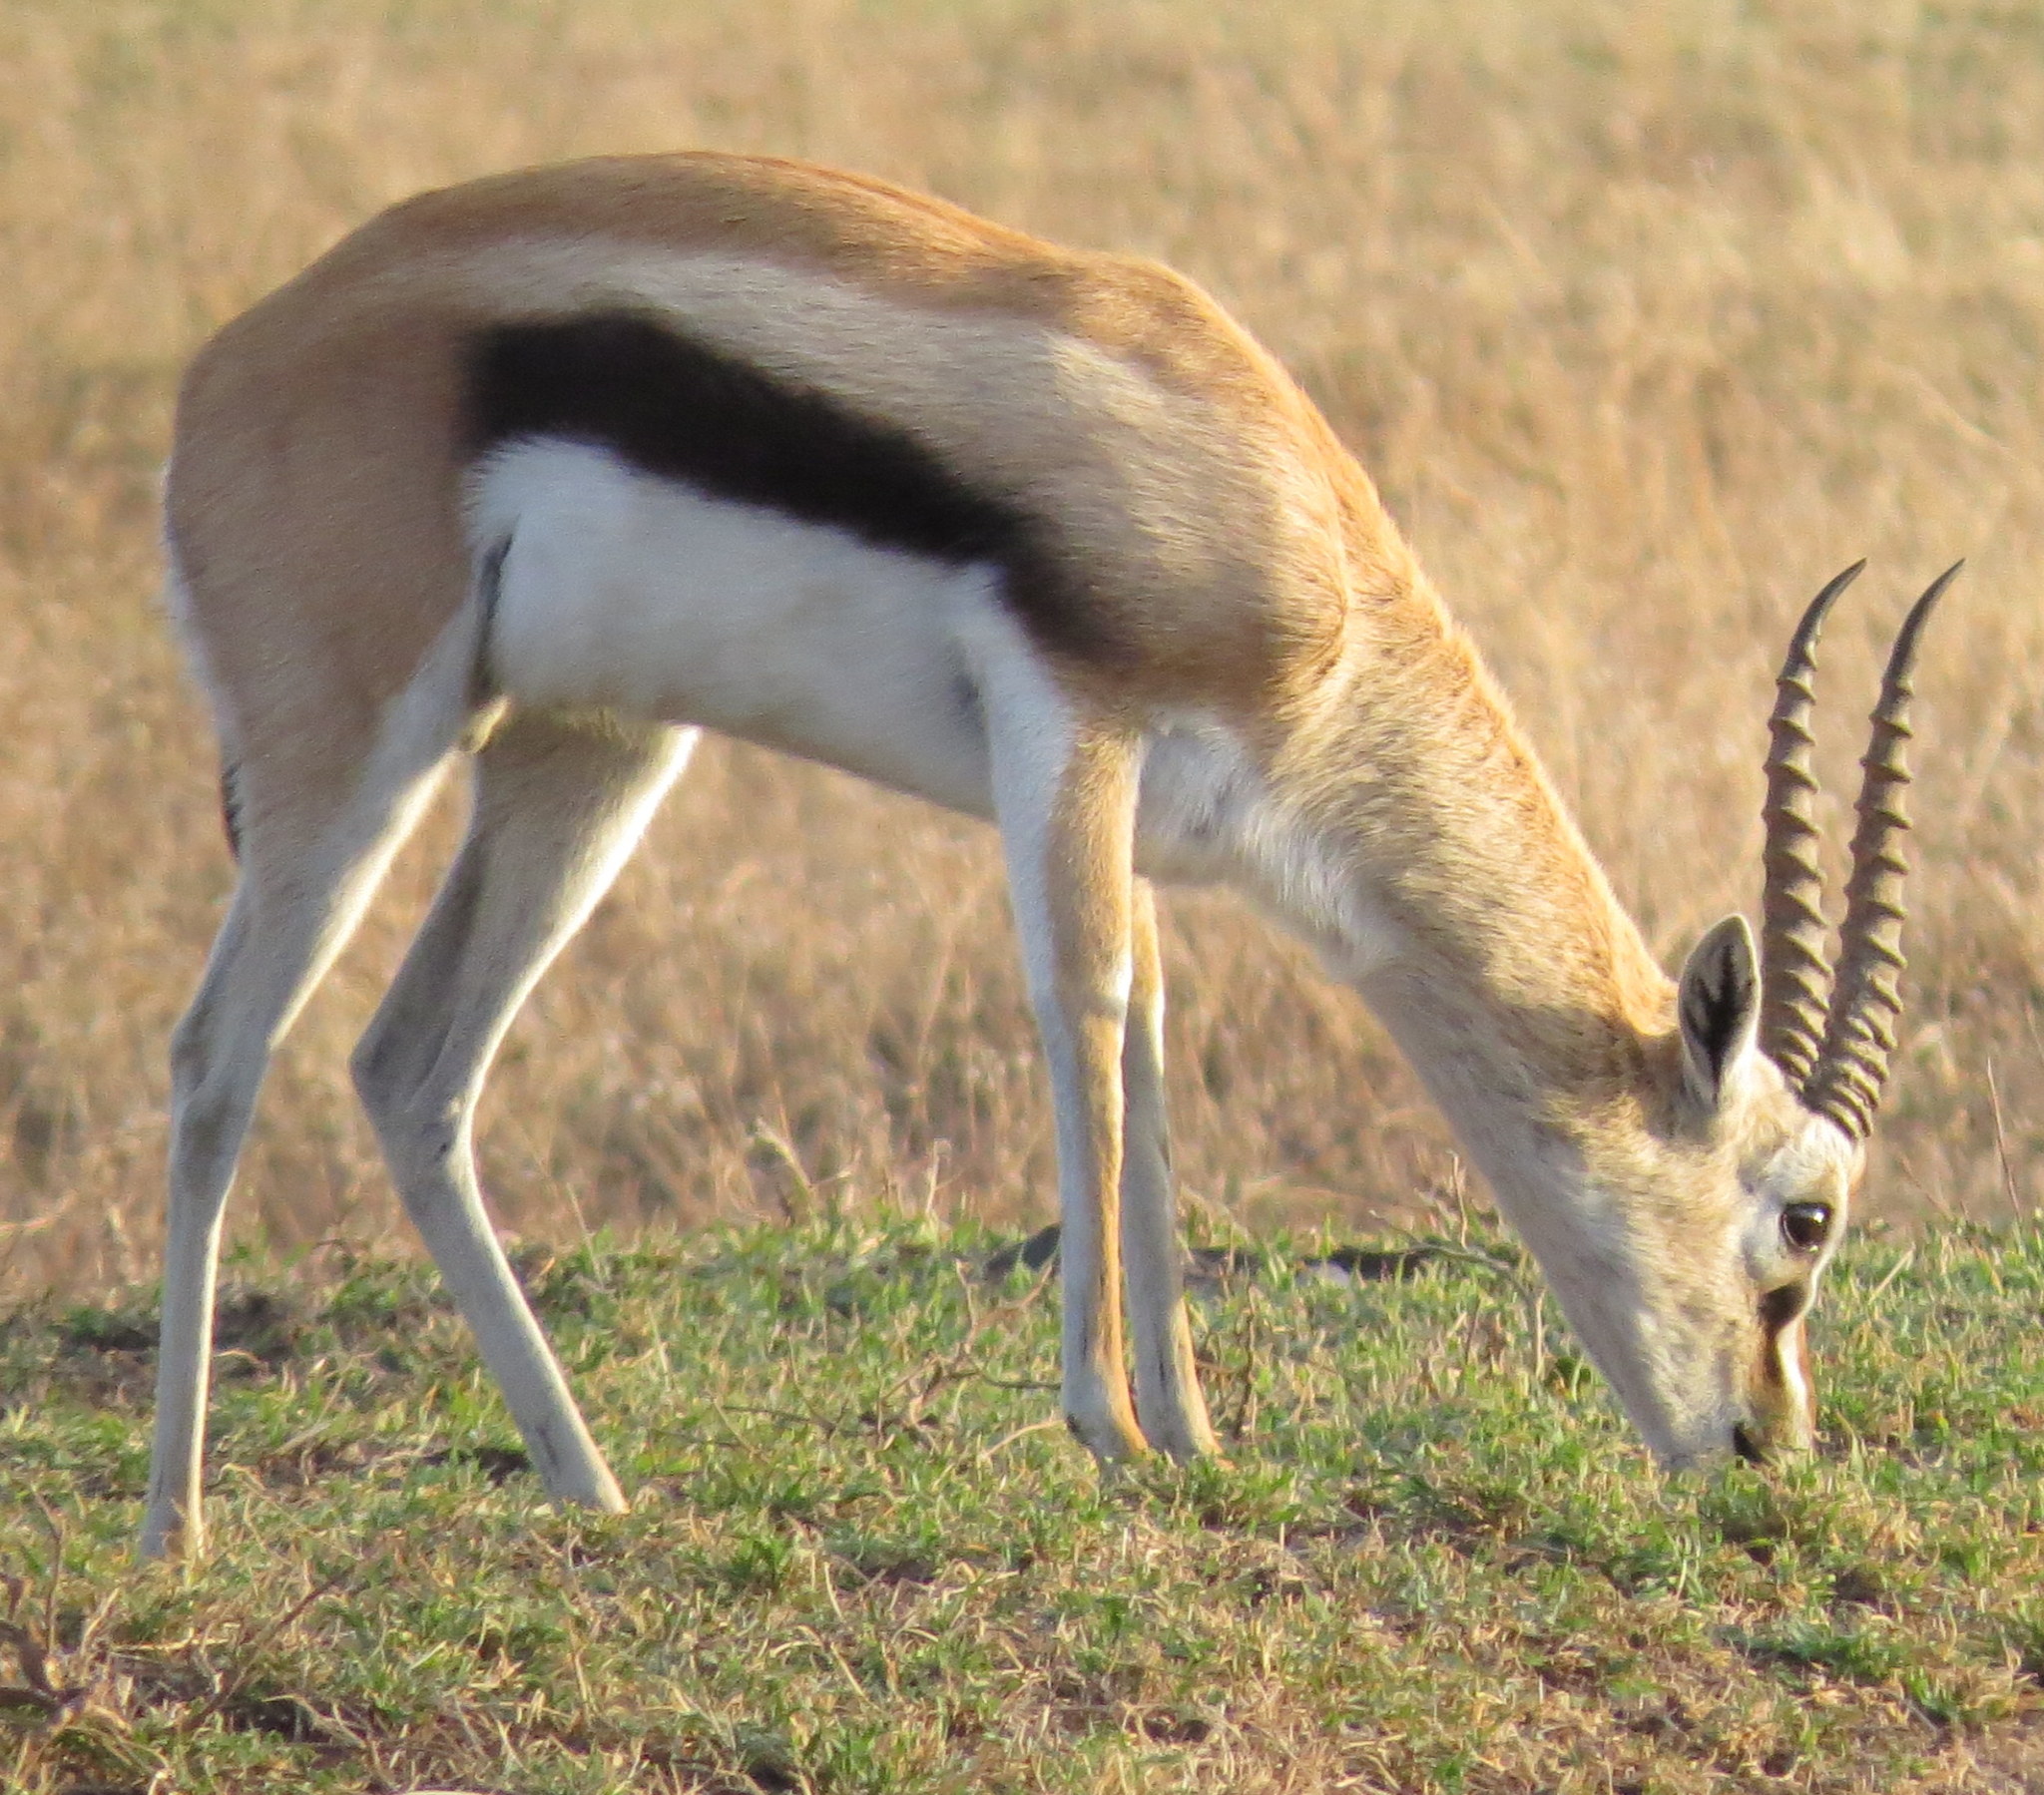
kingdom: Animalia
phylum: Chordata
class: Mammalia
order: Artiodactyla
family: Bovidae
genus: Eudorcas
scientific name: Eudorcas thomsonii
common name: Thomson's gazelle
